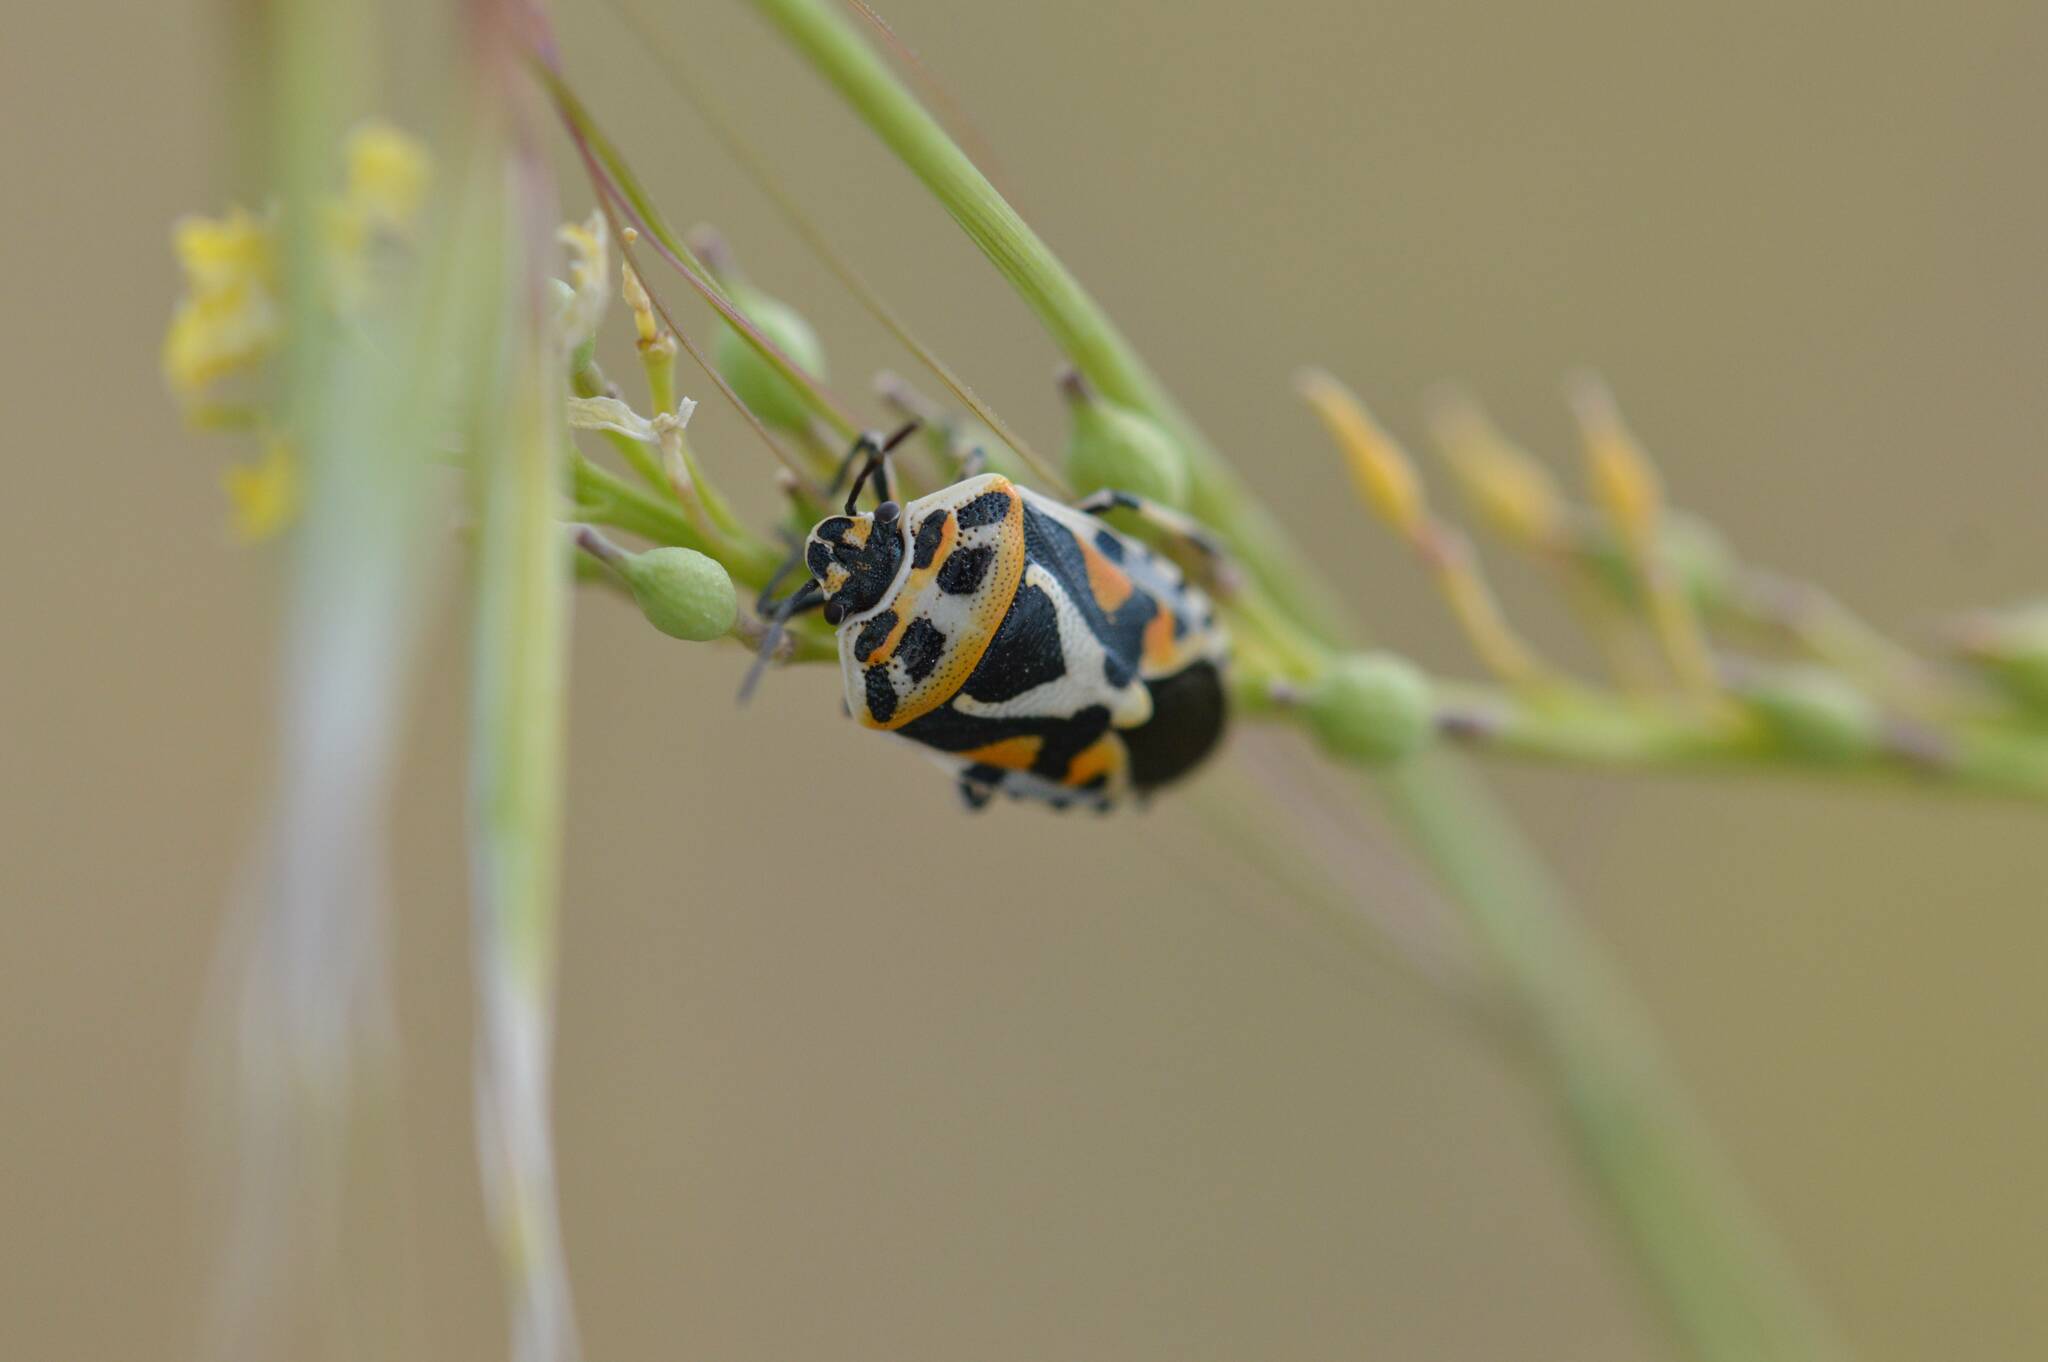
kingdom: Animalia
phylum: Arthropoda
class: Insecta
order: Hemiptera
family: Pentatomidae
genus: Eurydema
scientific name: Eurydema ornata
